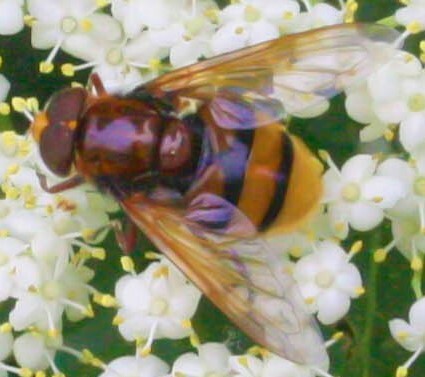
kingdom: Animalia
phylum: Arthropoda
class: Insecta
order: Diptera
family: Syrphidae
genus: Volucella
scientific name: Volucella zonaria
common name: Hornet hoverfly
